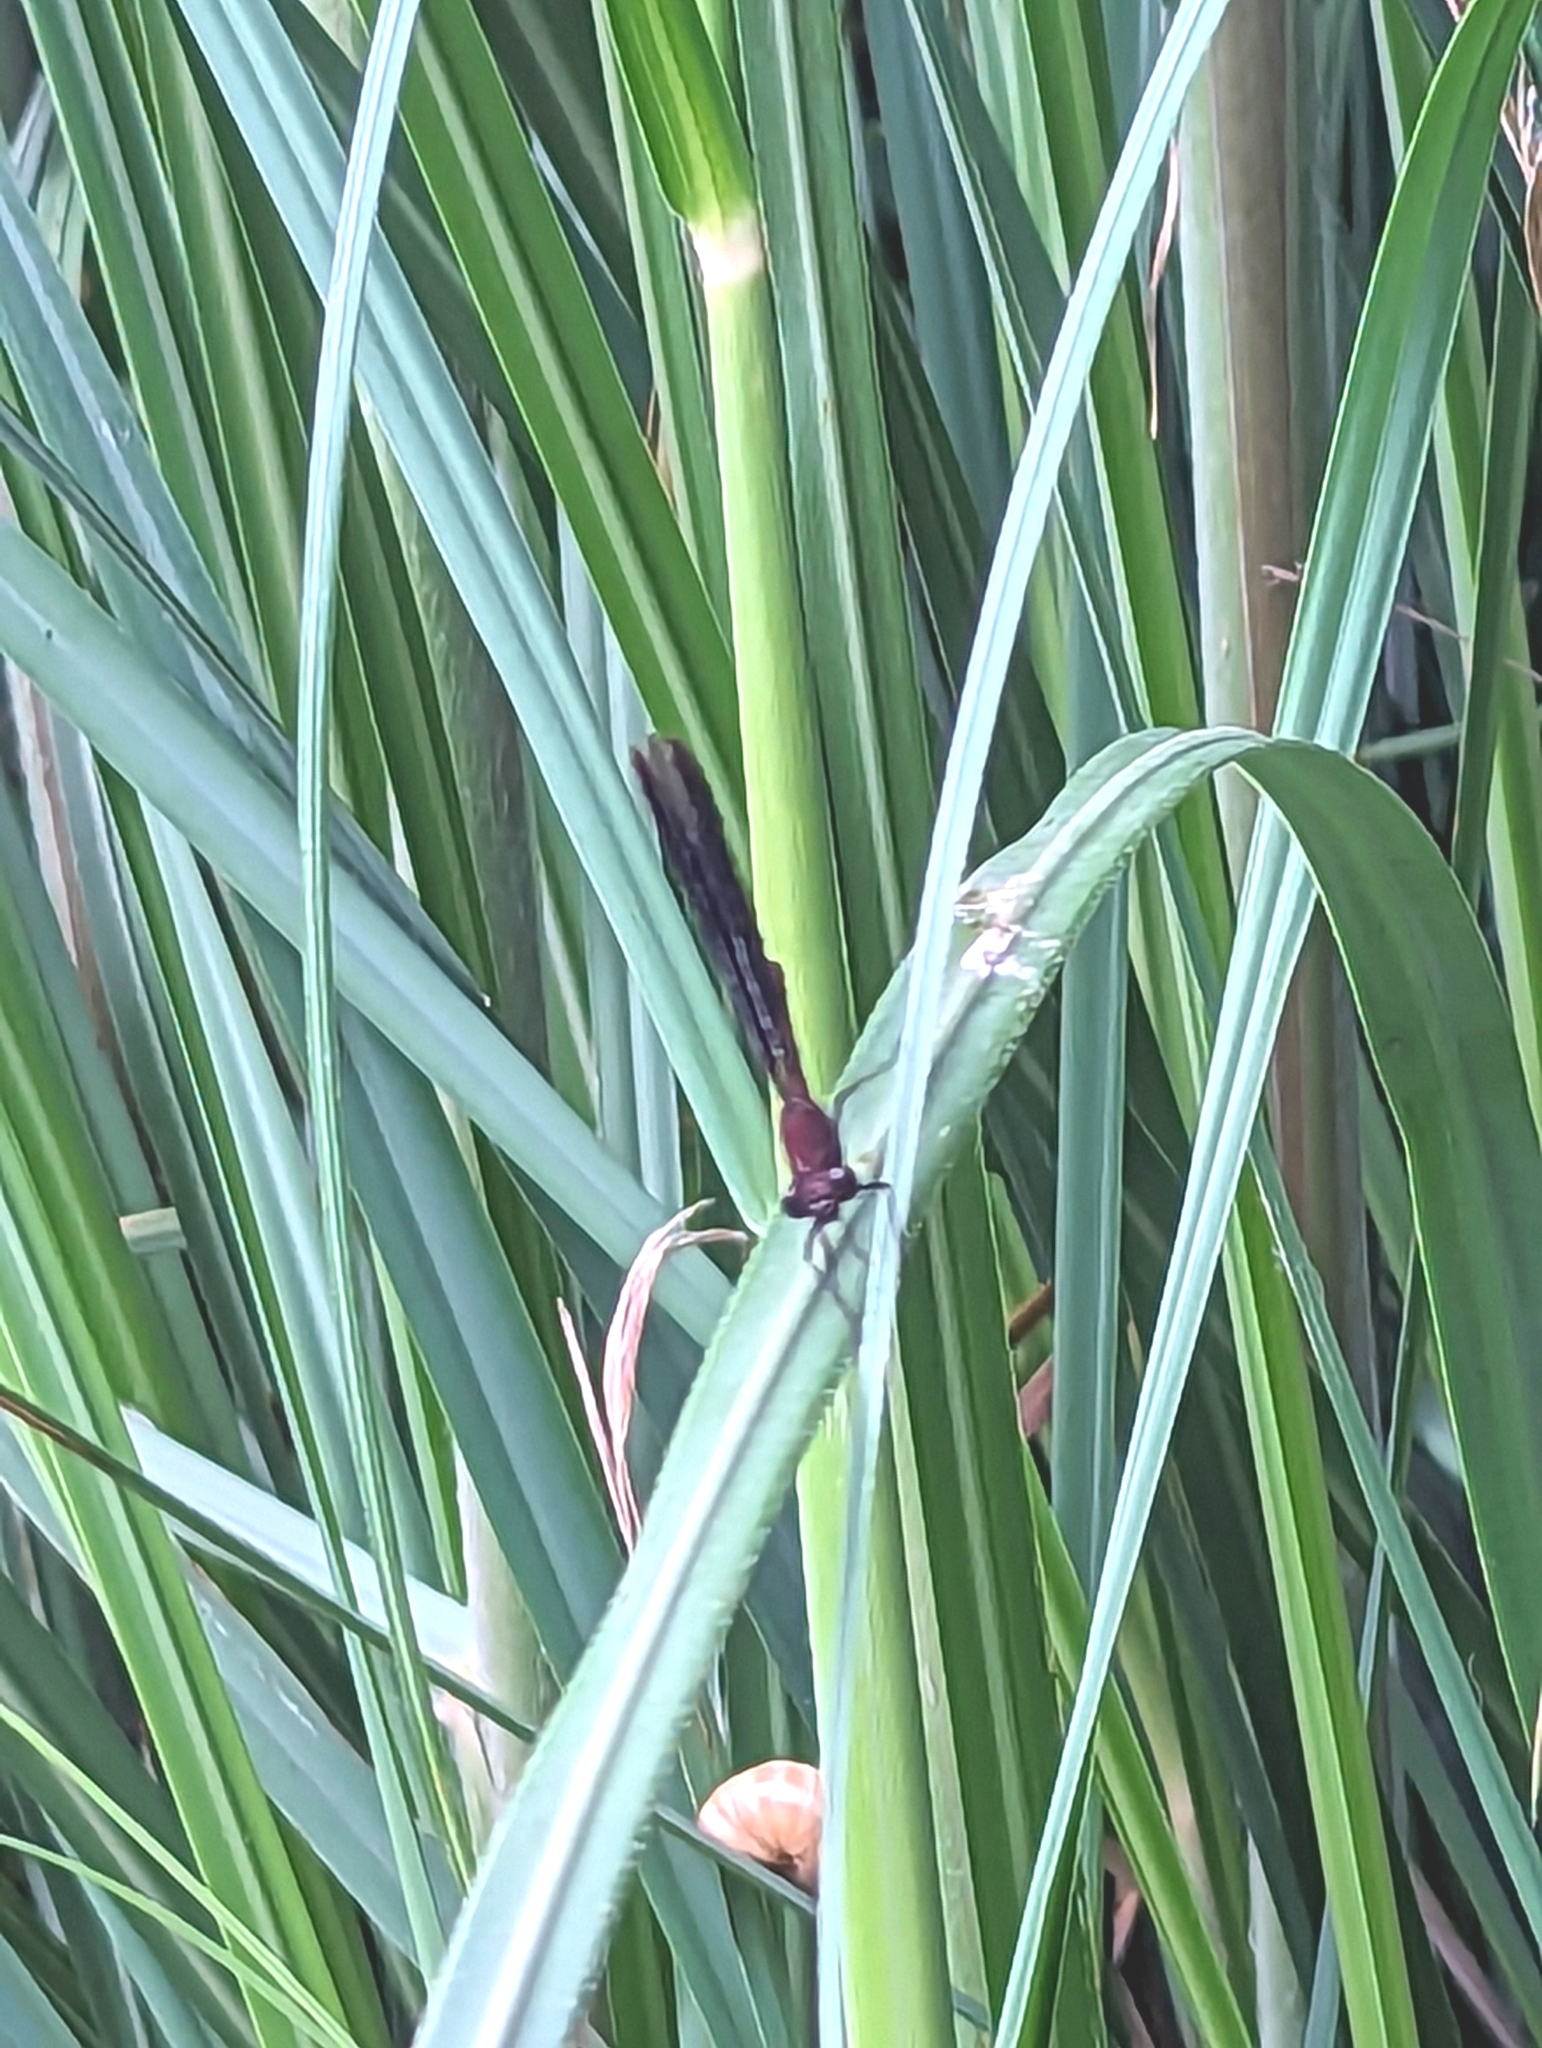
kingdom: Animalia
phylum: Arthropoda
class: Insecta
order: Odonata
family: Calopterygidae
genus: Calopteryx
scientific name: Calopteryx haemorrhoidalis
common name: Copper demoiselle
